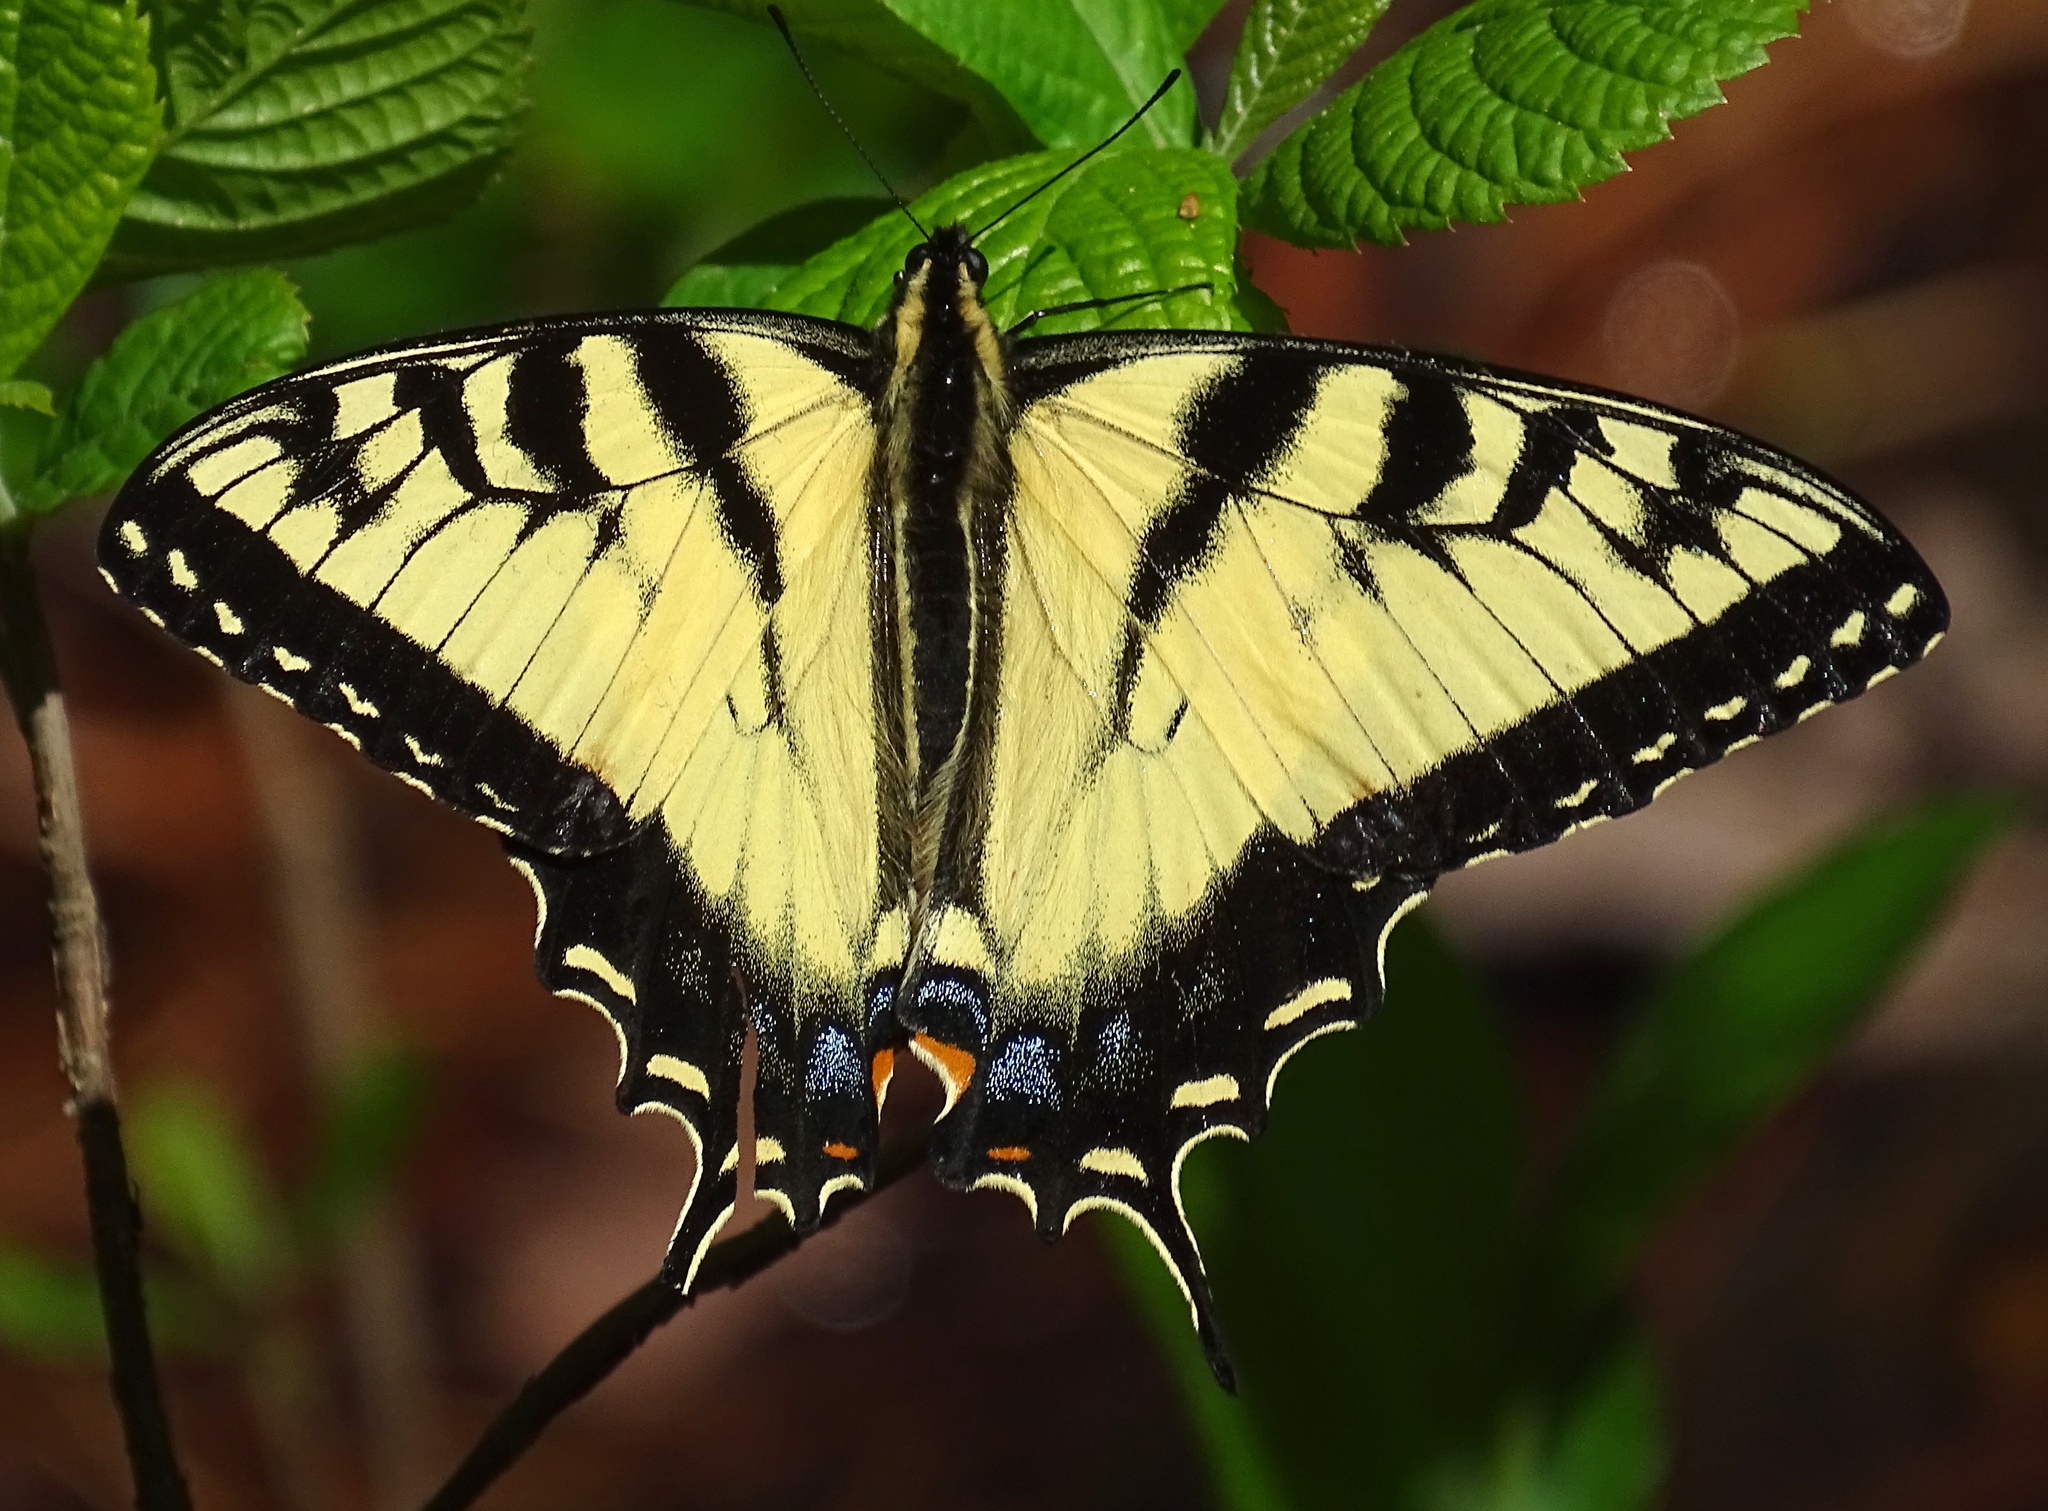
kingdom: Animalia
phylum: Arthropoda
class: Insecta
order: Lepidoptera
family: Papilionidae
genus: Papilio
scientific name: Papilio glaucus
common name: Tiger swallowtail
